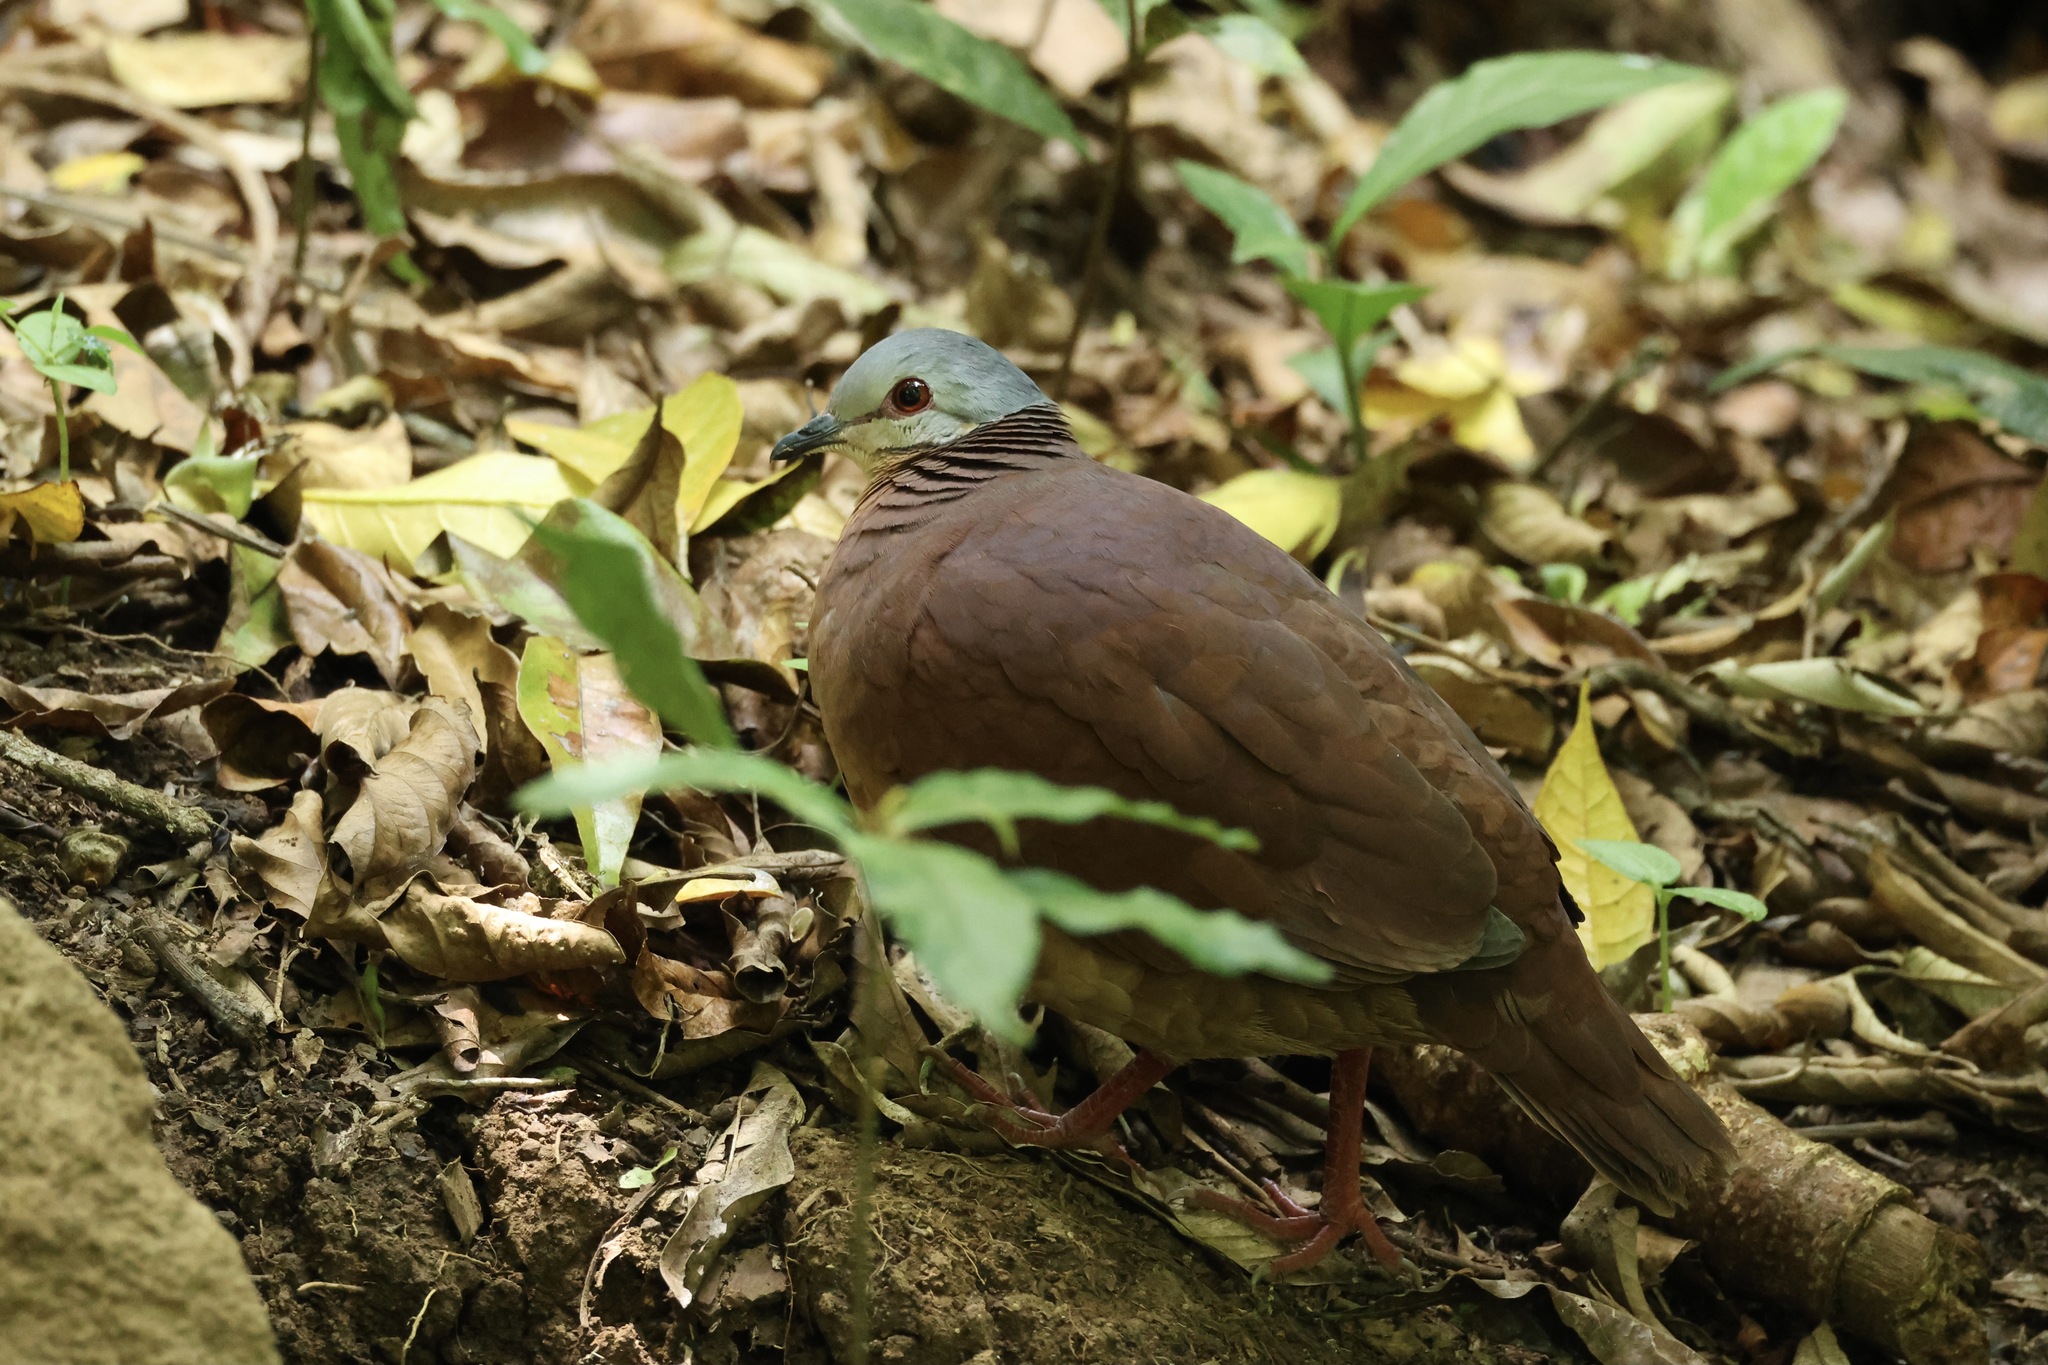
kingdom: Animalia
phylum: Chordata
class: Aves
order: Columbiformes
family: Columbidae
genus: Zentrygon
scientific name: Zentrygon chiriquensis
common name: Chiriqui quail-dove
